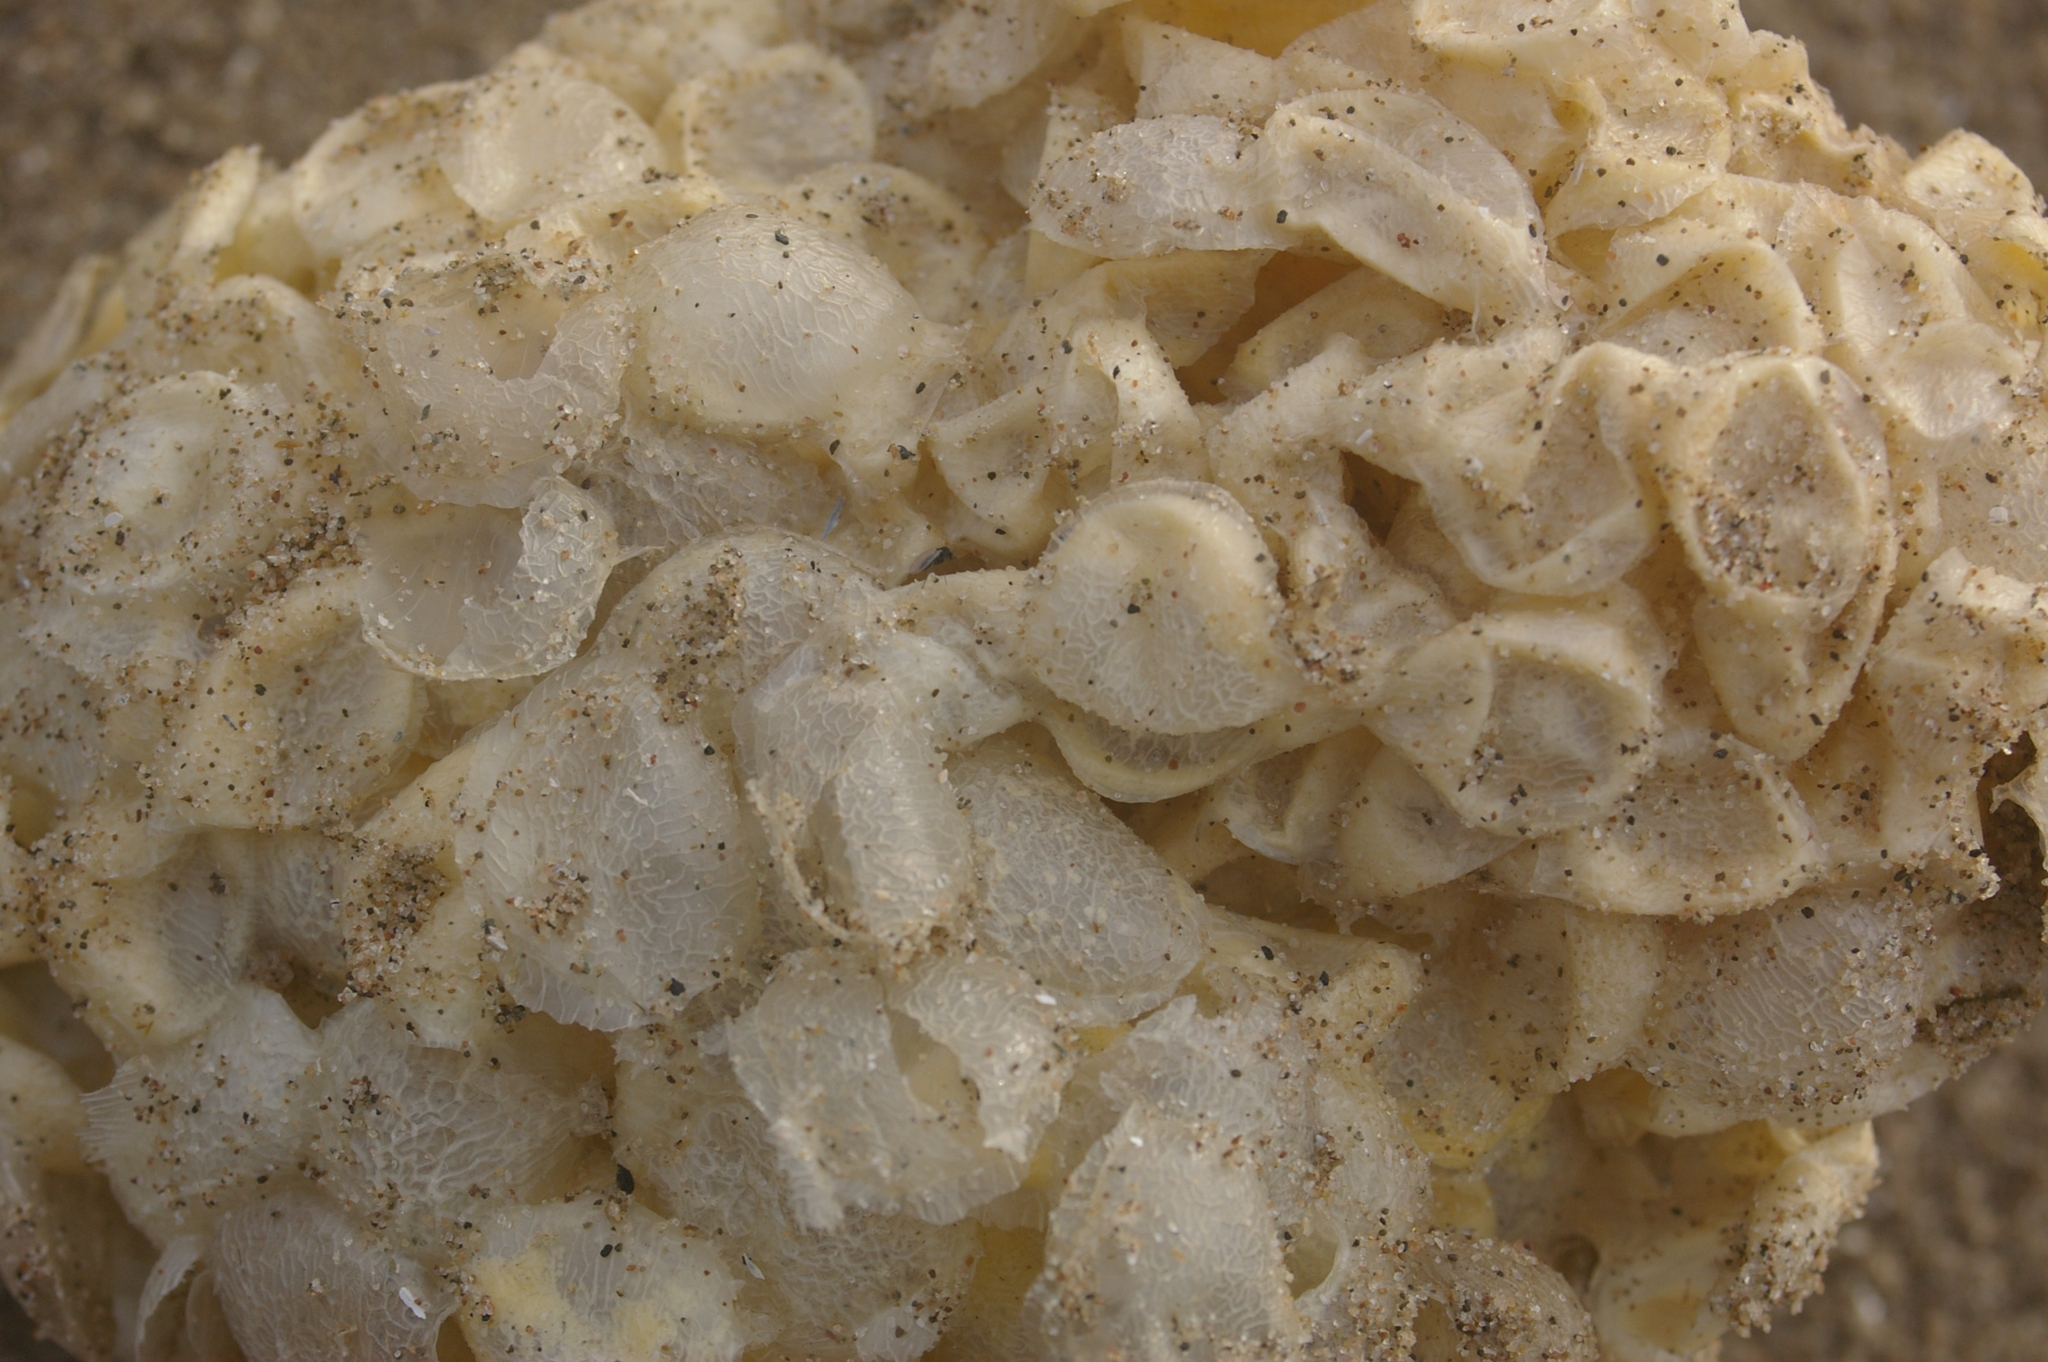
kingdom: Animalia
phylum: Mollusca
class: Gastropoda
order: Neogastropoda
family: Buccinidae
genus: Buccinum
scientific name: Buccinum undatum
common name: Common whelk
